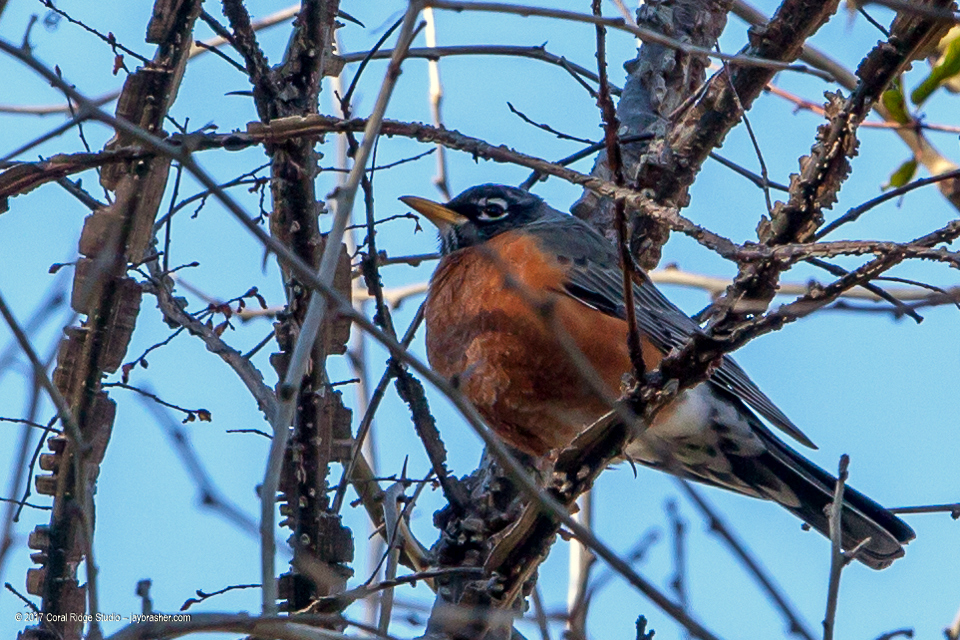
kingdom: Animalia
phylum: Chordata
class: Aves
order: Passeriformes
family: Turdidae
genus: Turdus
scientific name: Turdus migratorius
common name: American robin
